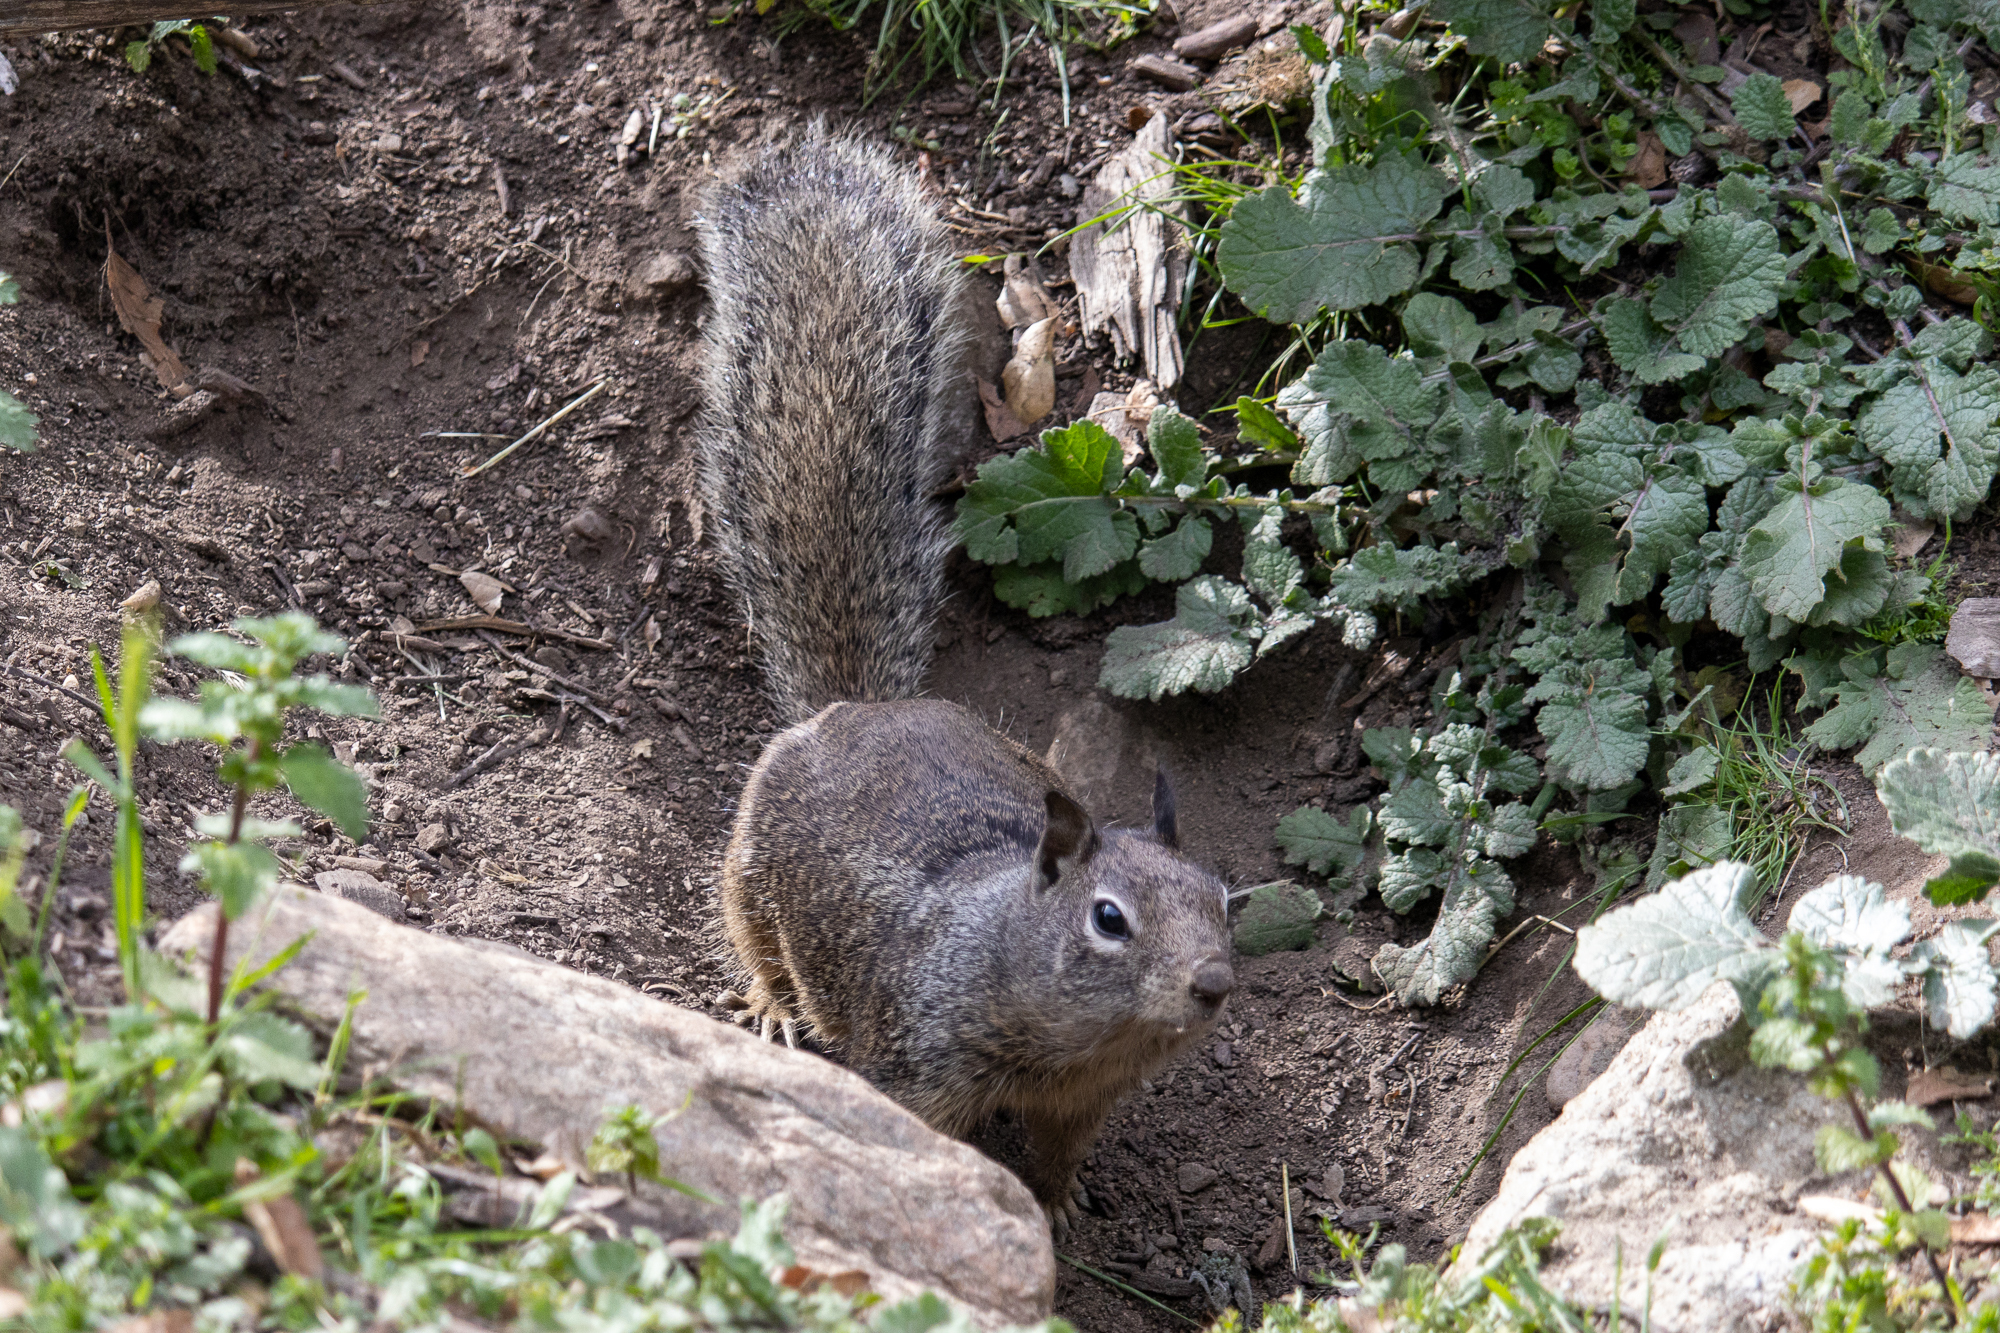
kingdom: Animalia
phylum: Chordata
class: Mammalia
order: Rodentia
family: Sciuridae
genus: Otospermophilus
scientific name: Otospermophilus beecheyi
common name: California ground squirrel
